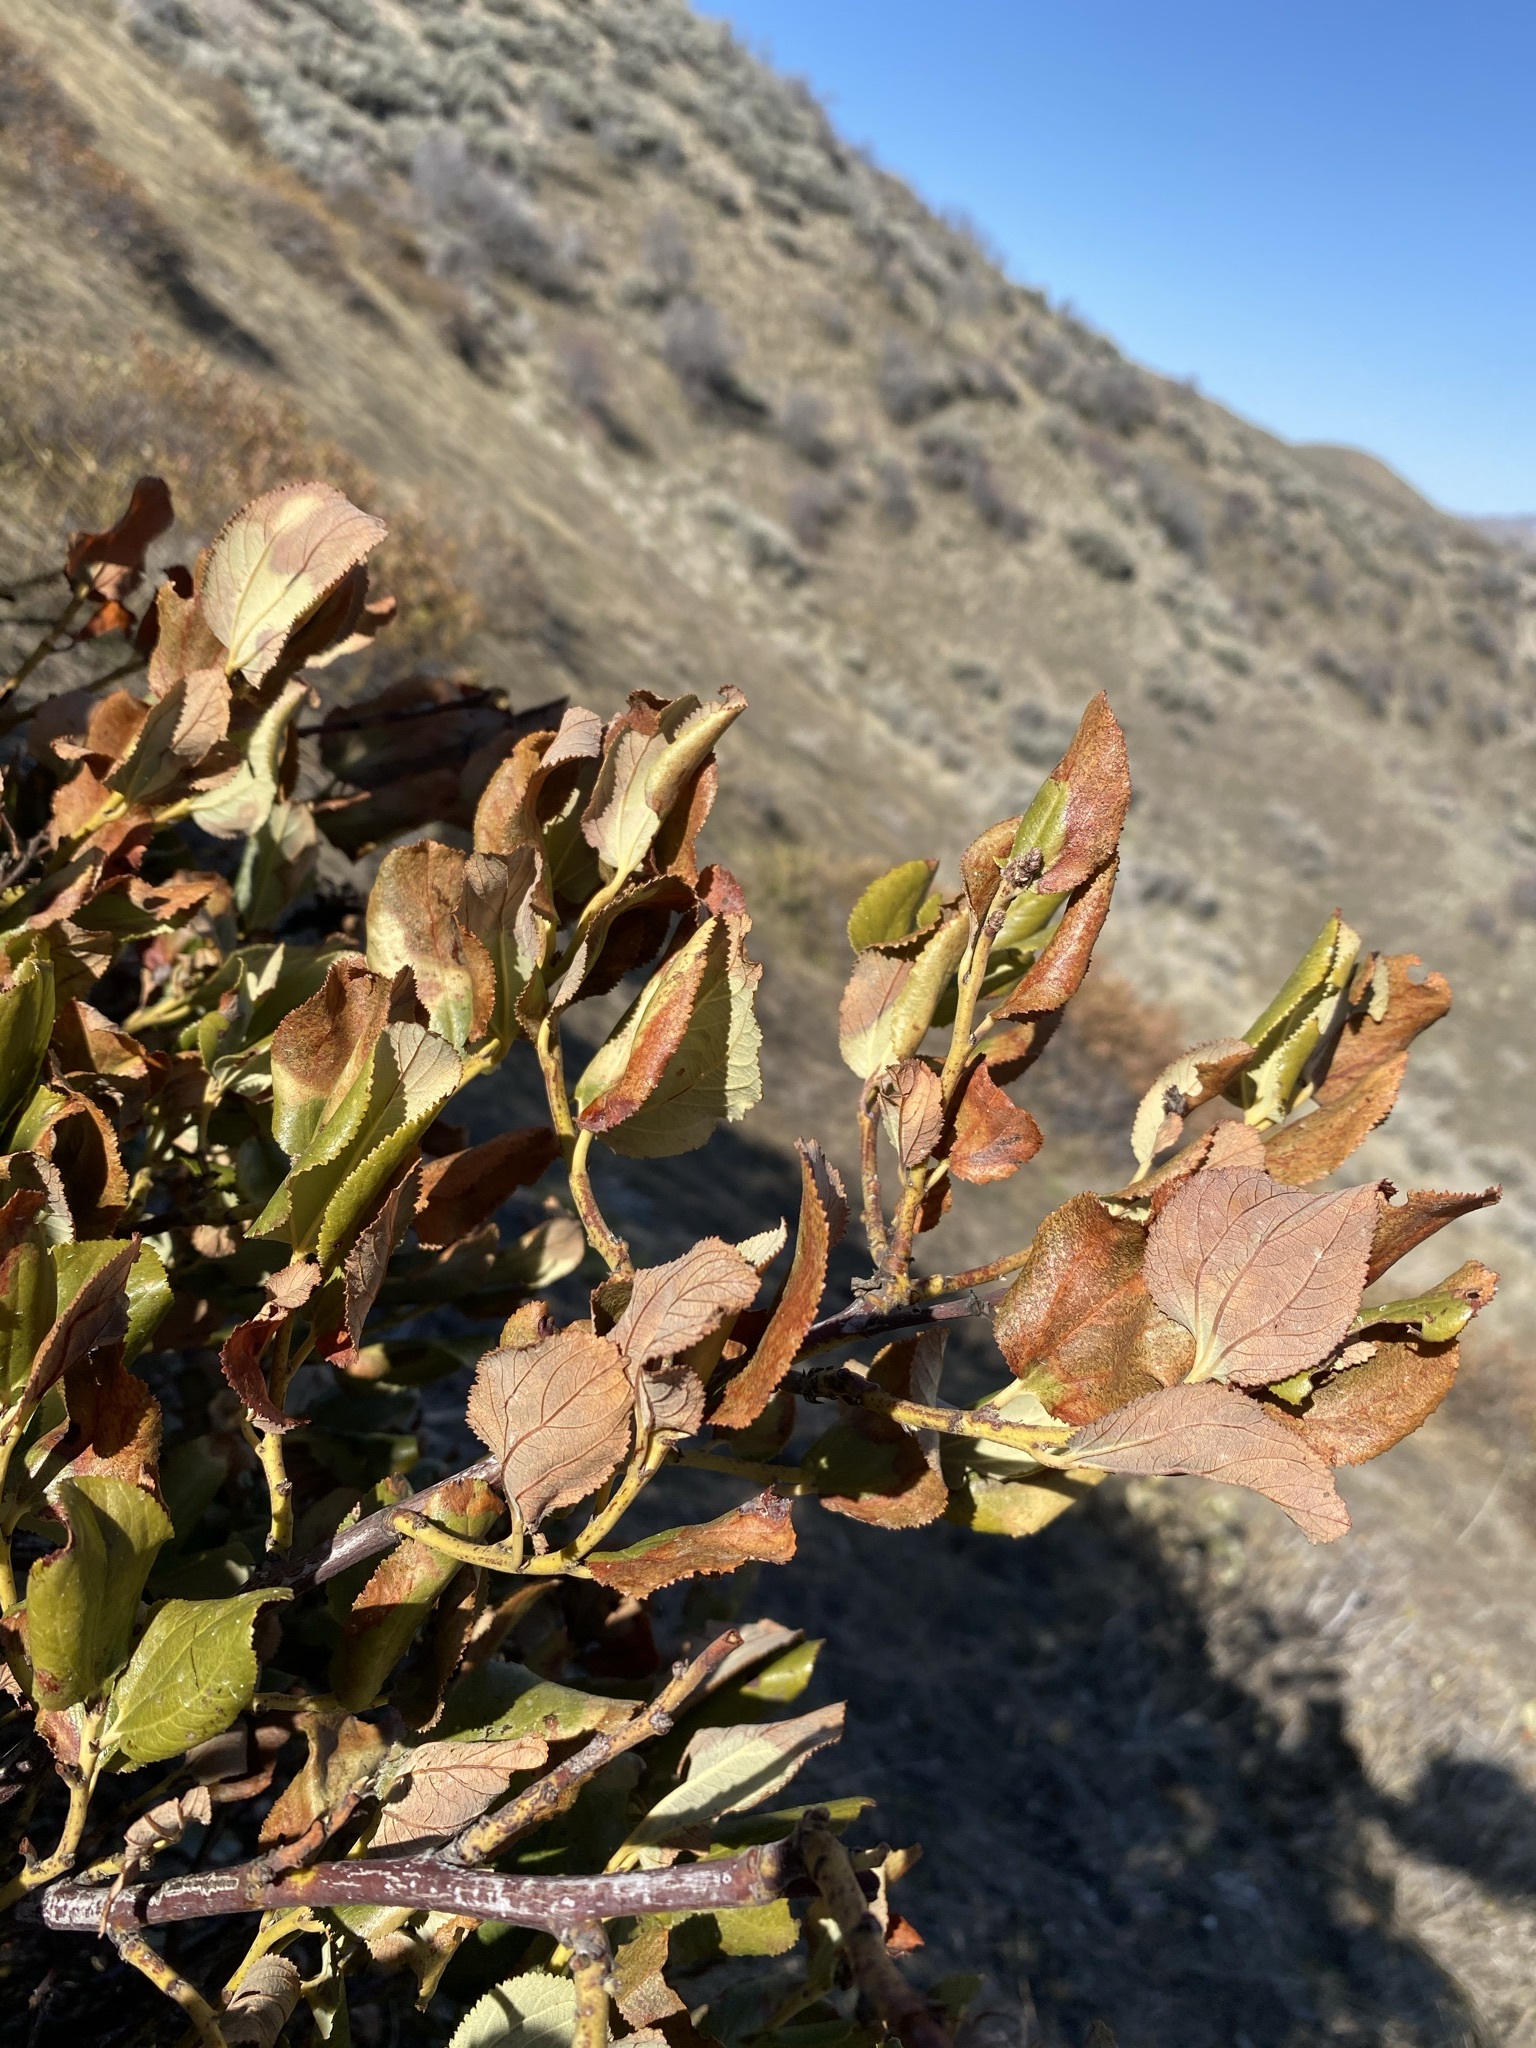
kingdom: Plantae
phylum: Tracheophyta
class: Magnoliopsida
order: Rosales
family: Rhamnaceae
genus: Ceanothus
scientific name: Ceanothus velutinus
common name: Snowbrush
